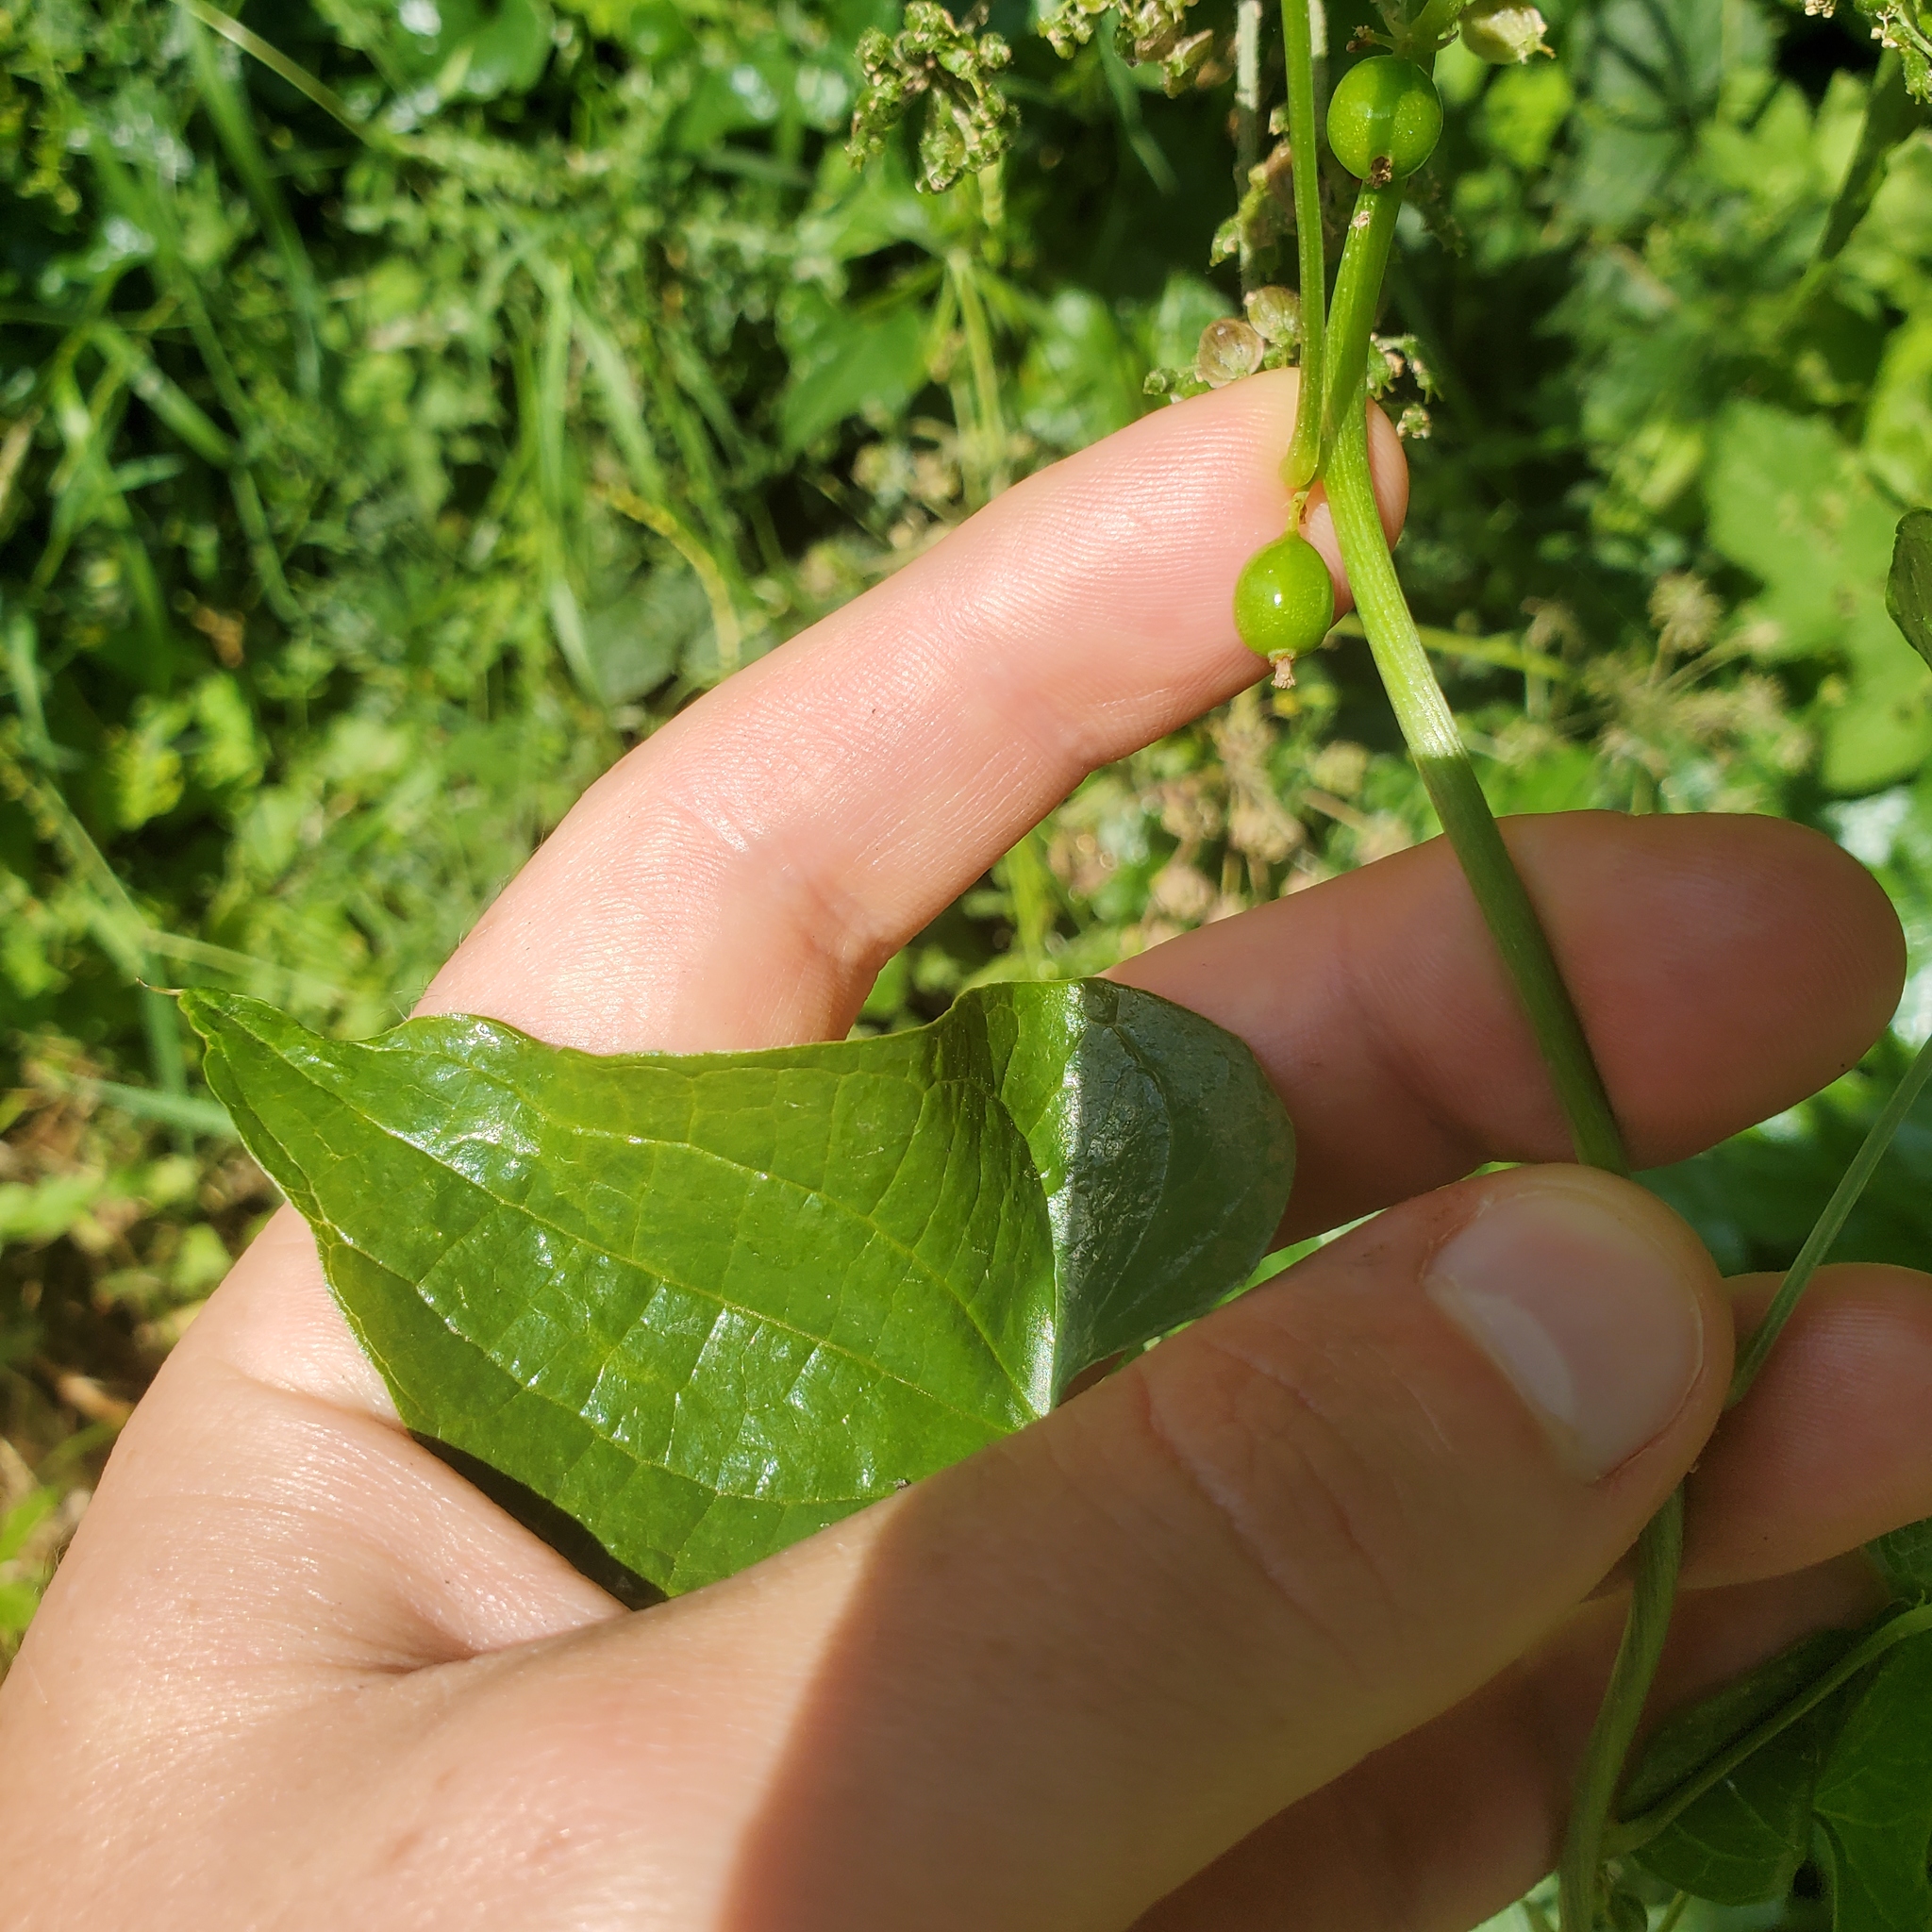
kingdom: Plantae
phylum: Tracheophyta
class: Liliopsida
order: Dioscoreales
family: Dioscoreaceae
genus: Dioscorea
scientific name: Dioscorea communis
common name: Black-bindweed
